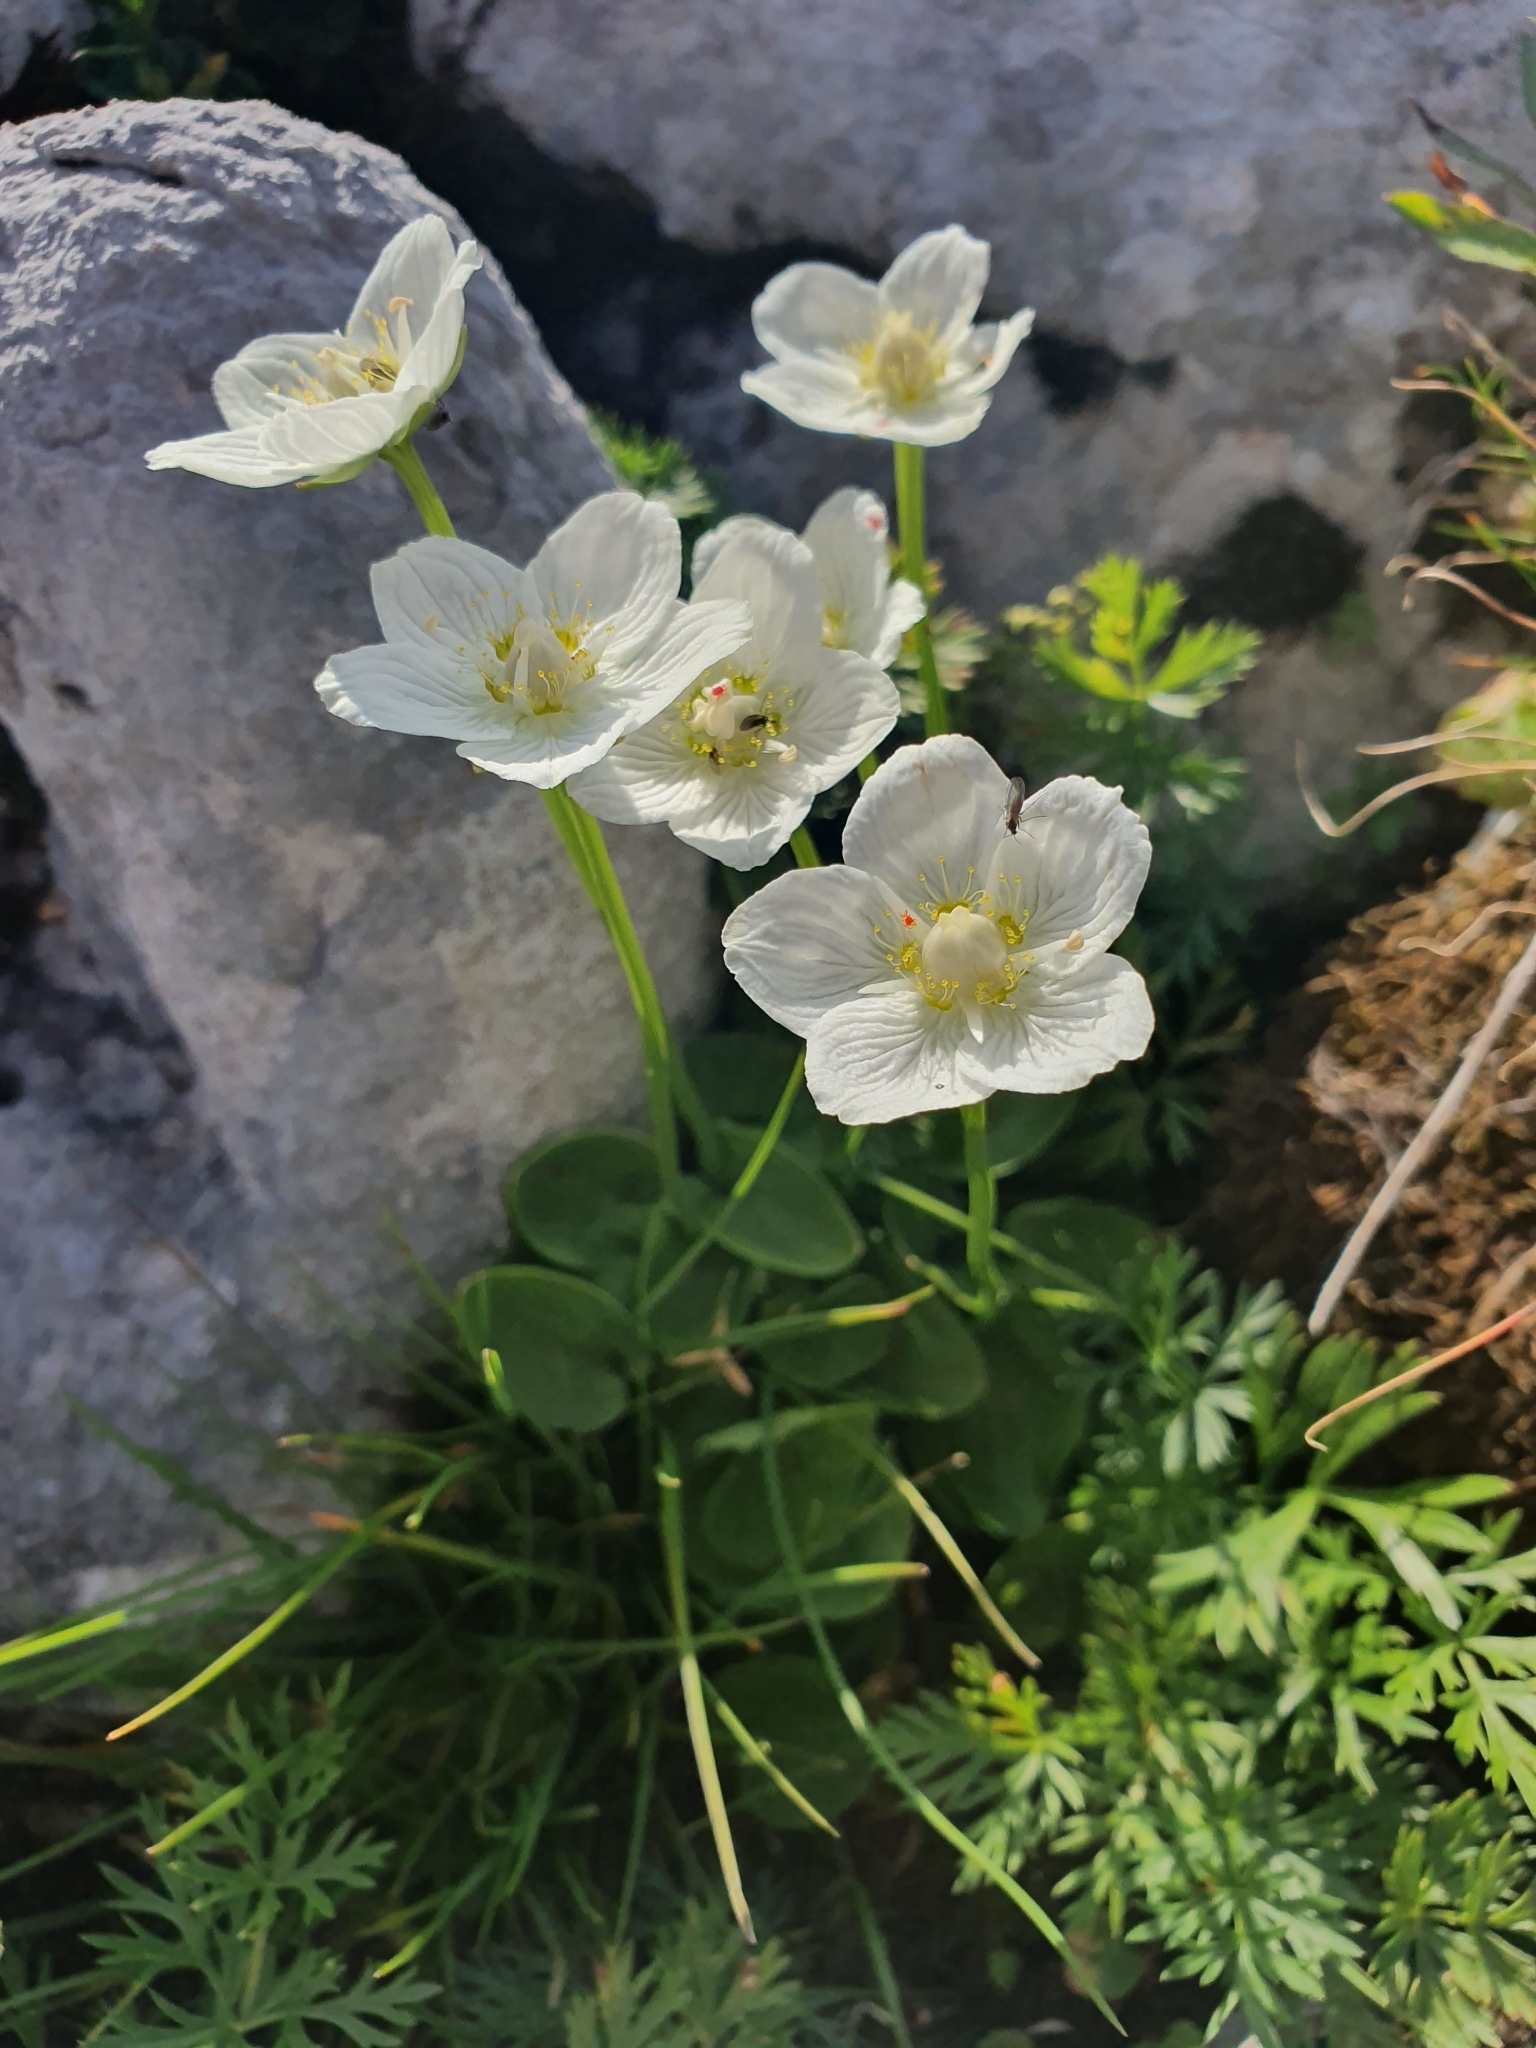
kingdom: Plantae
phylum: Tracheophyta
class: Magnoliopsida
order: Celastrales
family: Parnassiaceae
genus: Parnassia
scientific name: Parnassia palustris
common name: Grass-of-parnassus
